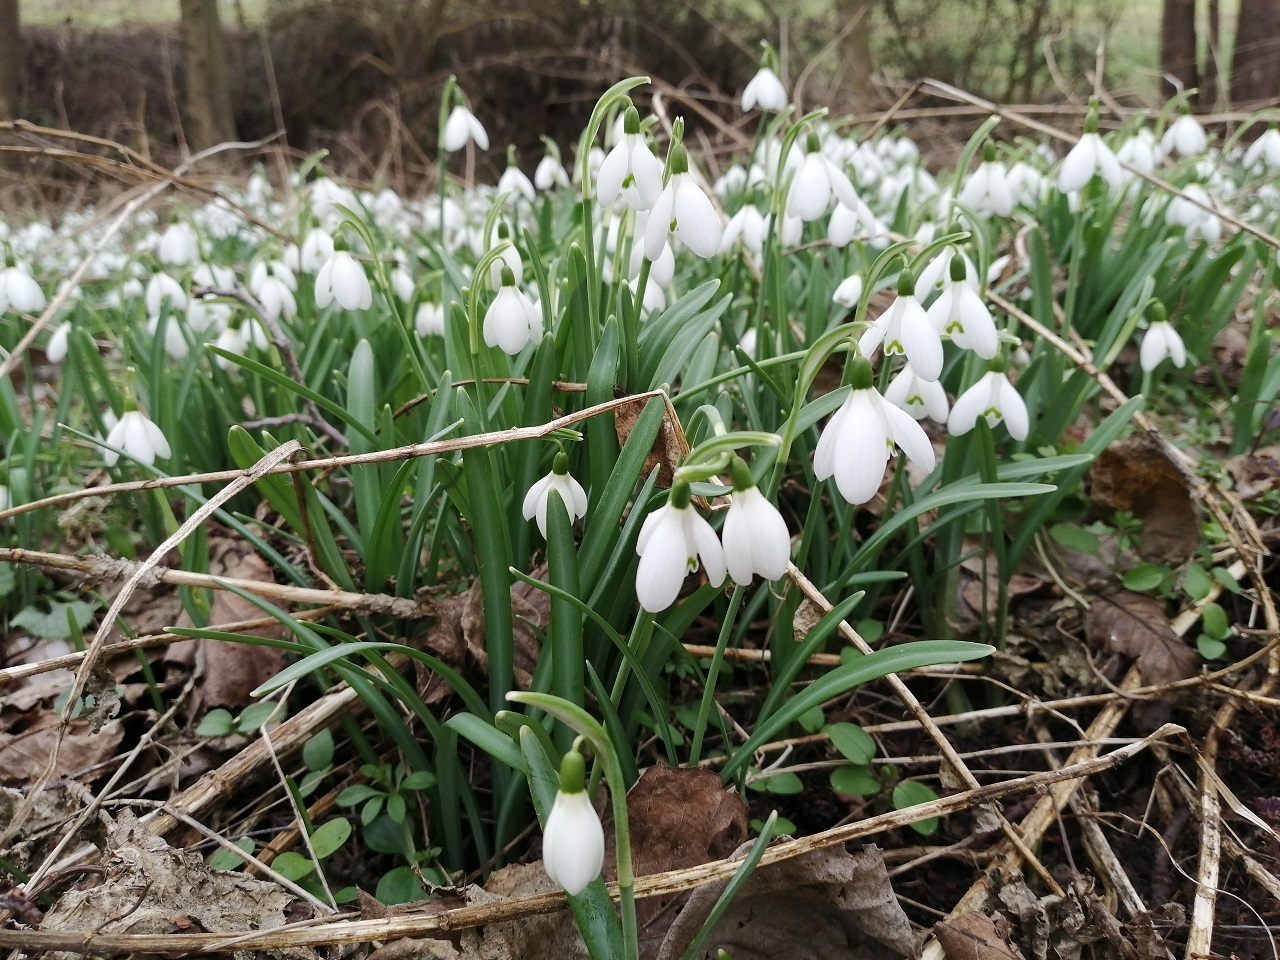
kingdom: Plantae
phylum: Tracheophyta
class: Liliopsida
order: Asparagales
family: Amaryllidaceae
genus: Galanthus
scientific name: Galanthus nivalis
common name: Snowdrop
